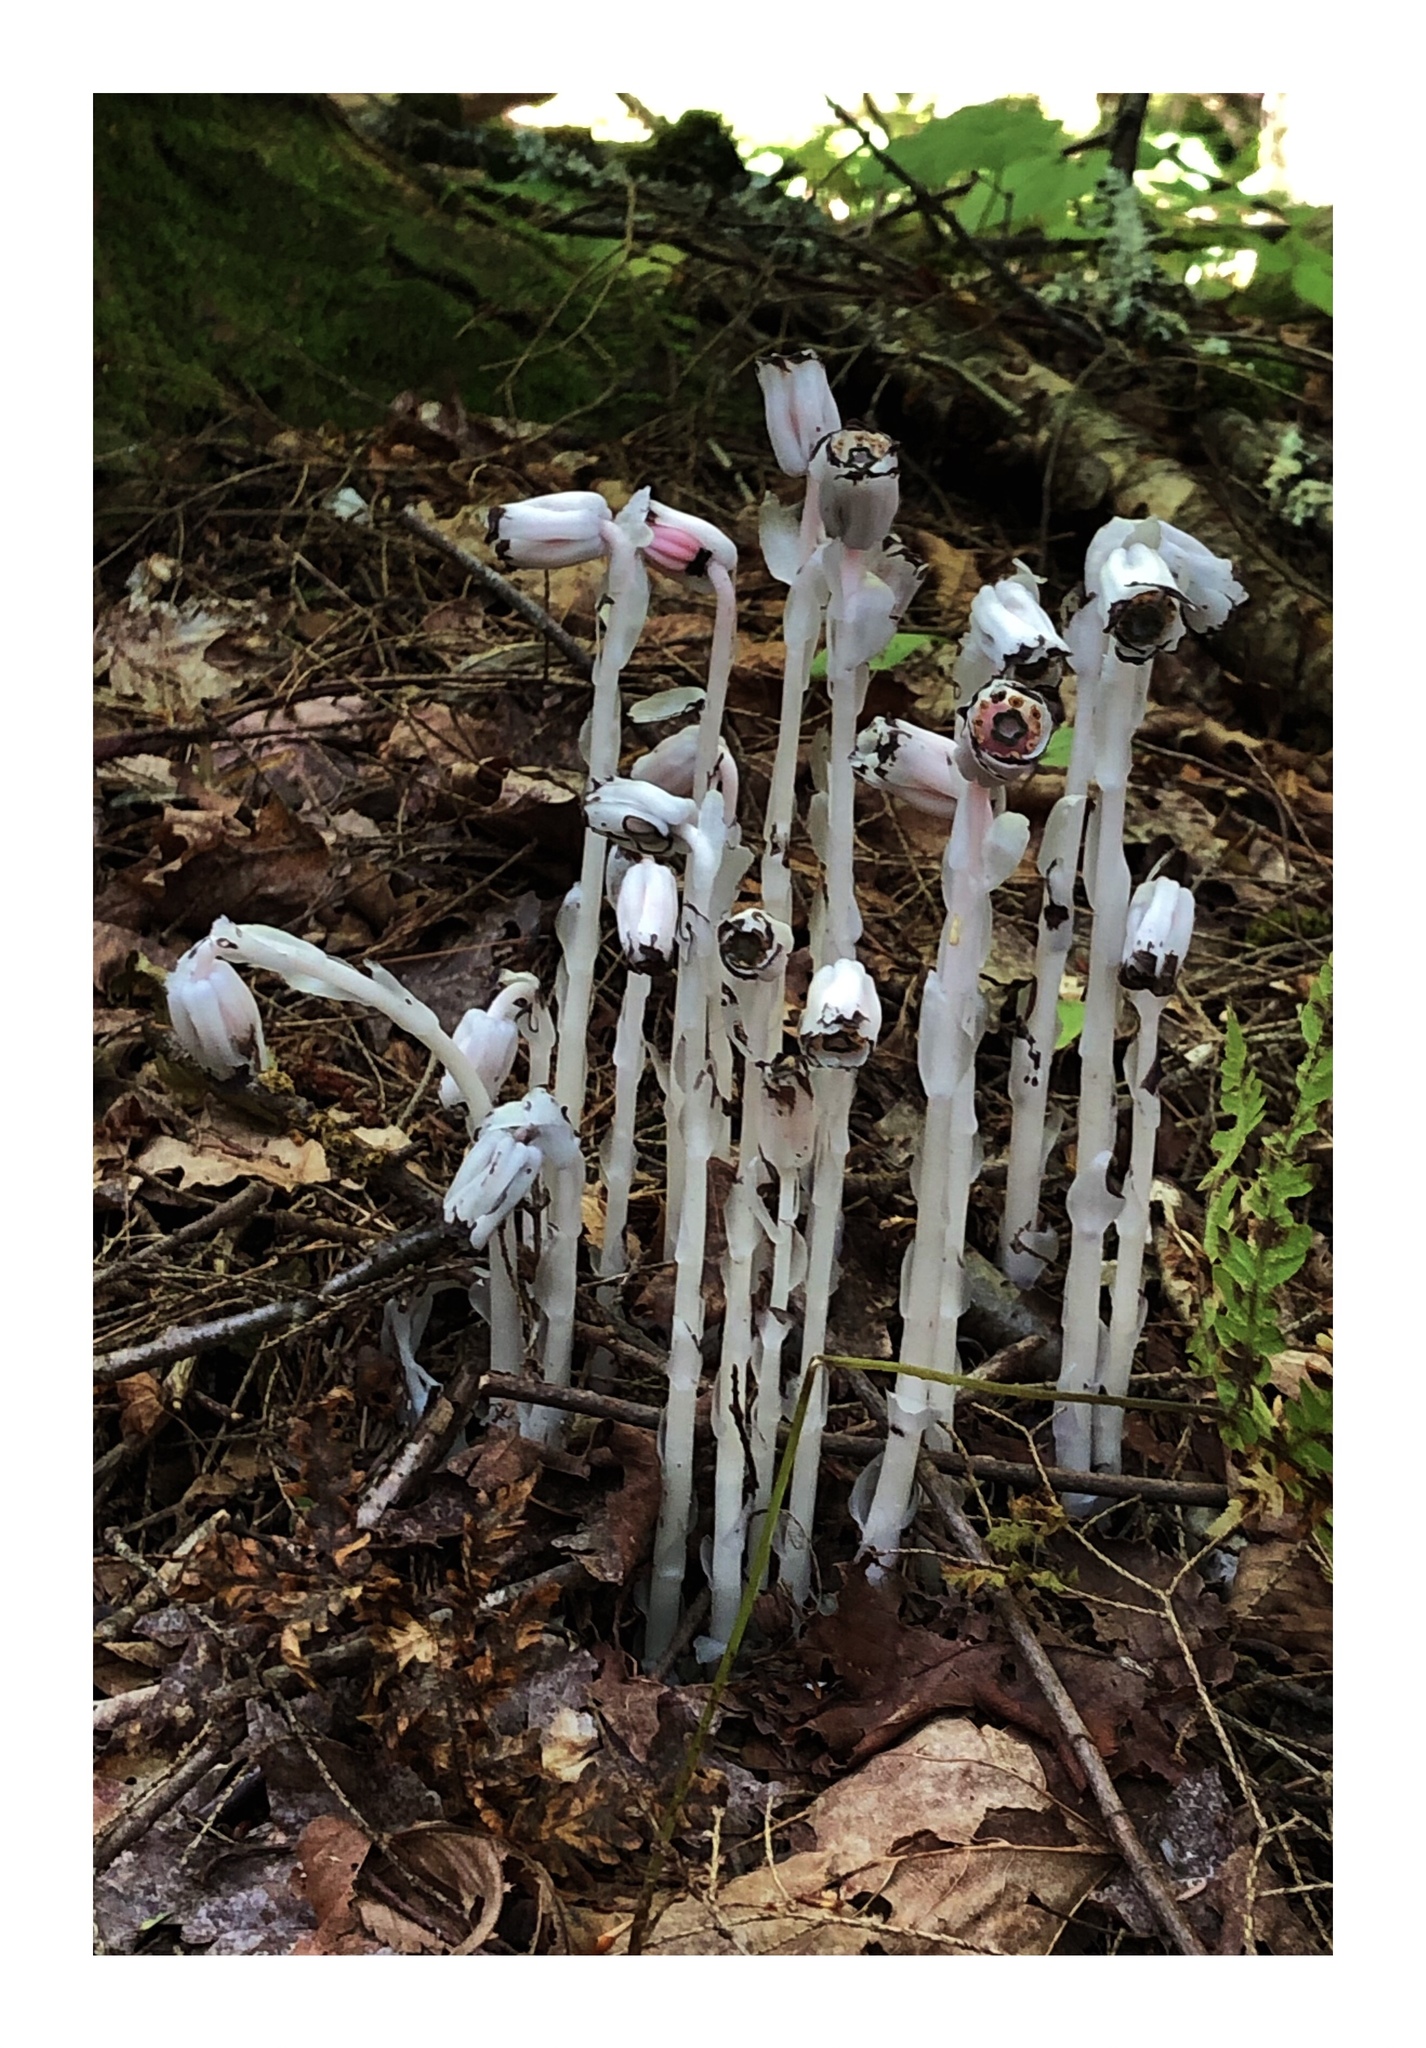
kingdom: Plantae
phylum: Tracheophyta
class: Magnoliopsida
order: Ericales
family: Ericaceae
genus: Monotropa
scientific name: Monotropa uniflora
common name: Convulsion root
